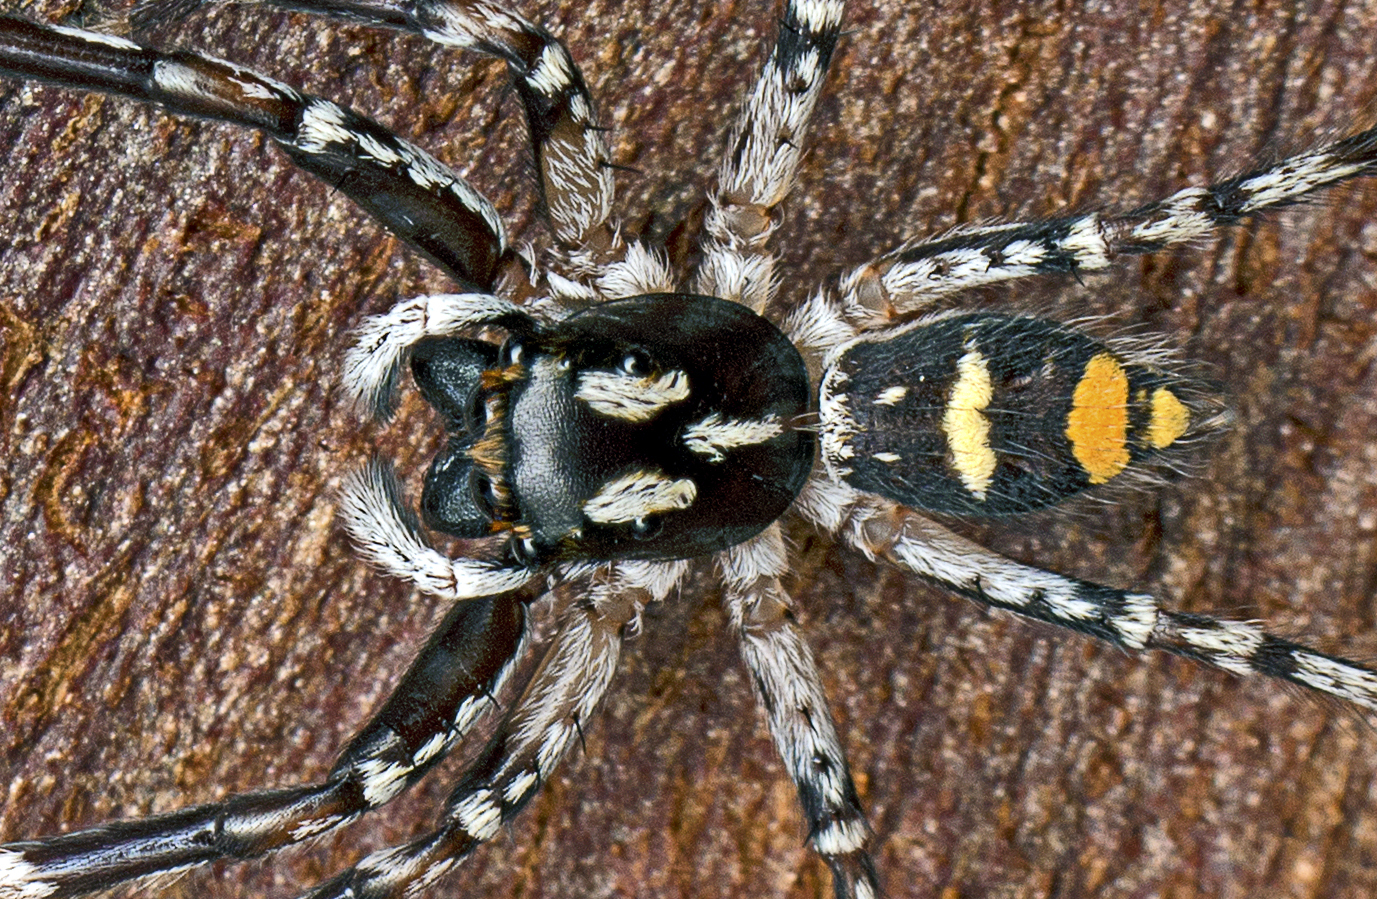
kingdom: Animalia
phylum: Arthropoda
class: Arachnida
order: Araneae
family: Salticidae
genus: Astia
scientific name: Astia
